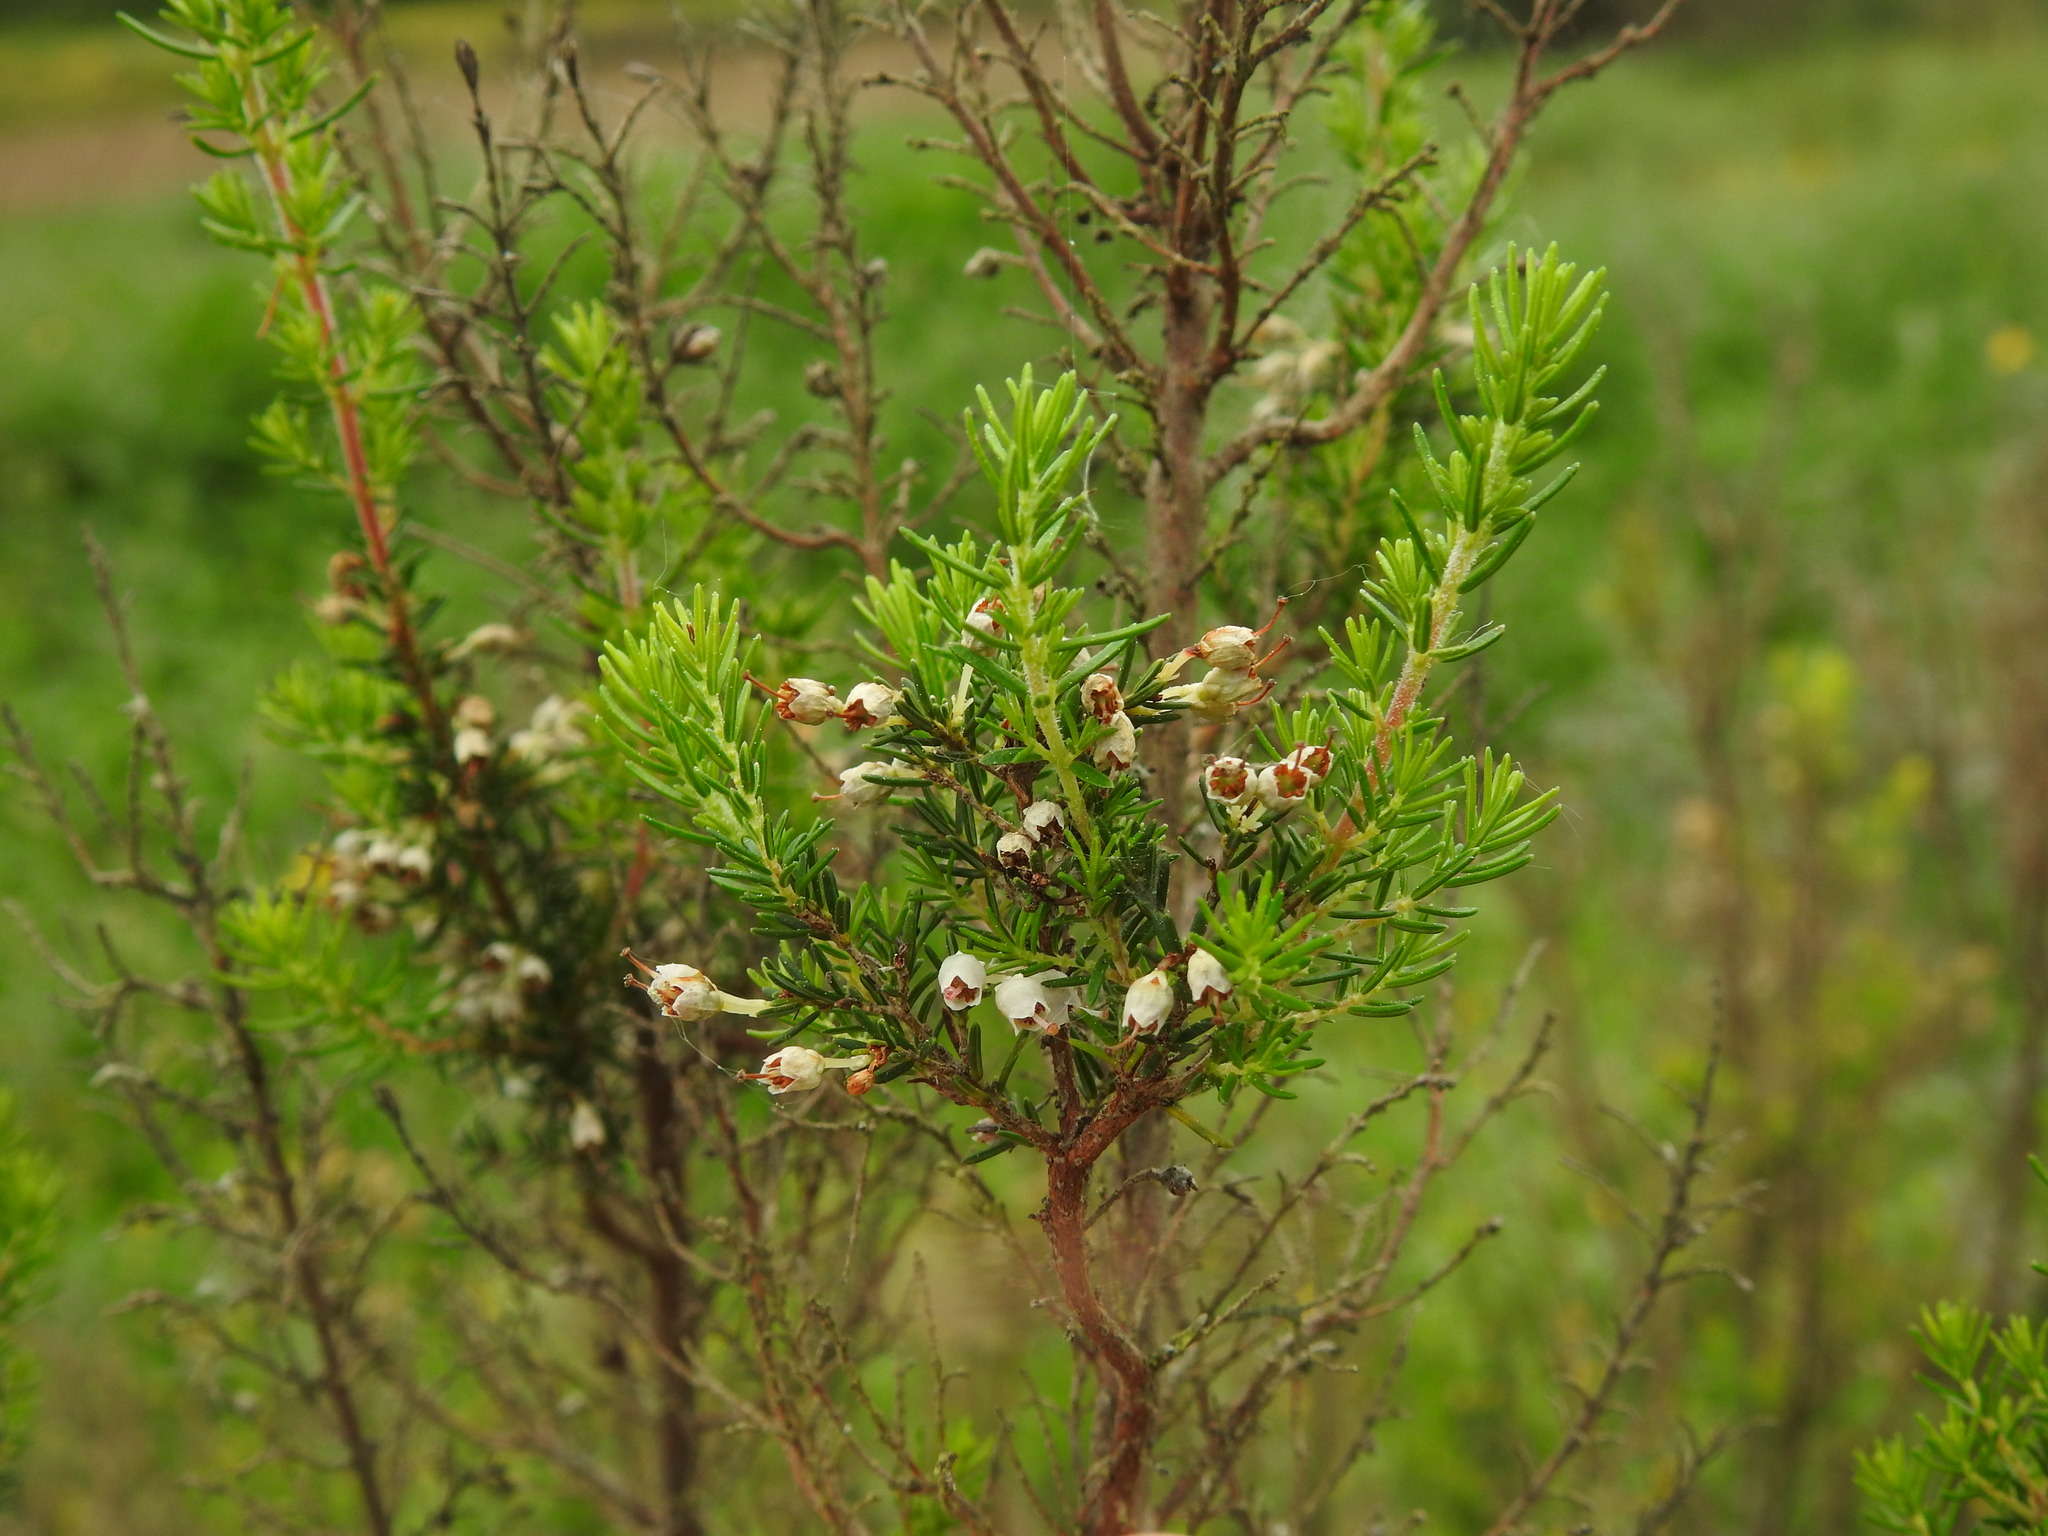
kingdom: Plantae
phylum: Tracheophyta
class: Magnoliopsida
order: Ericales
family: Ericaceae
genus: Erica
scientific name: Erica arborea
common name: Tree heath
